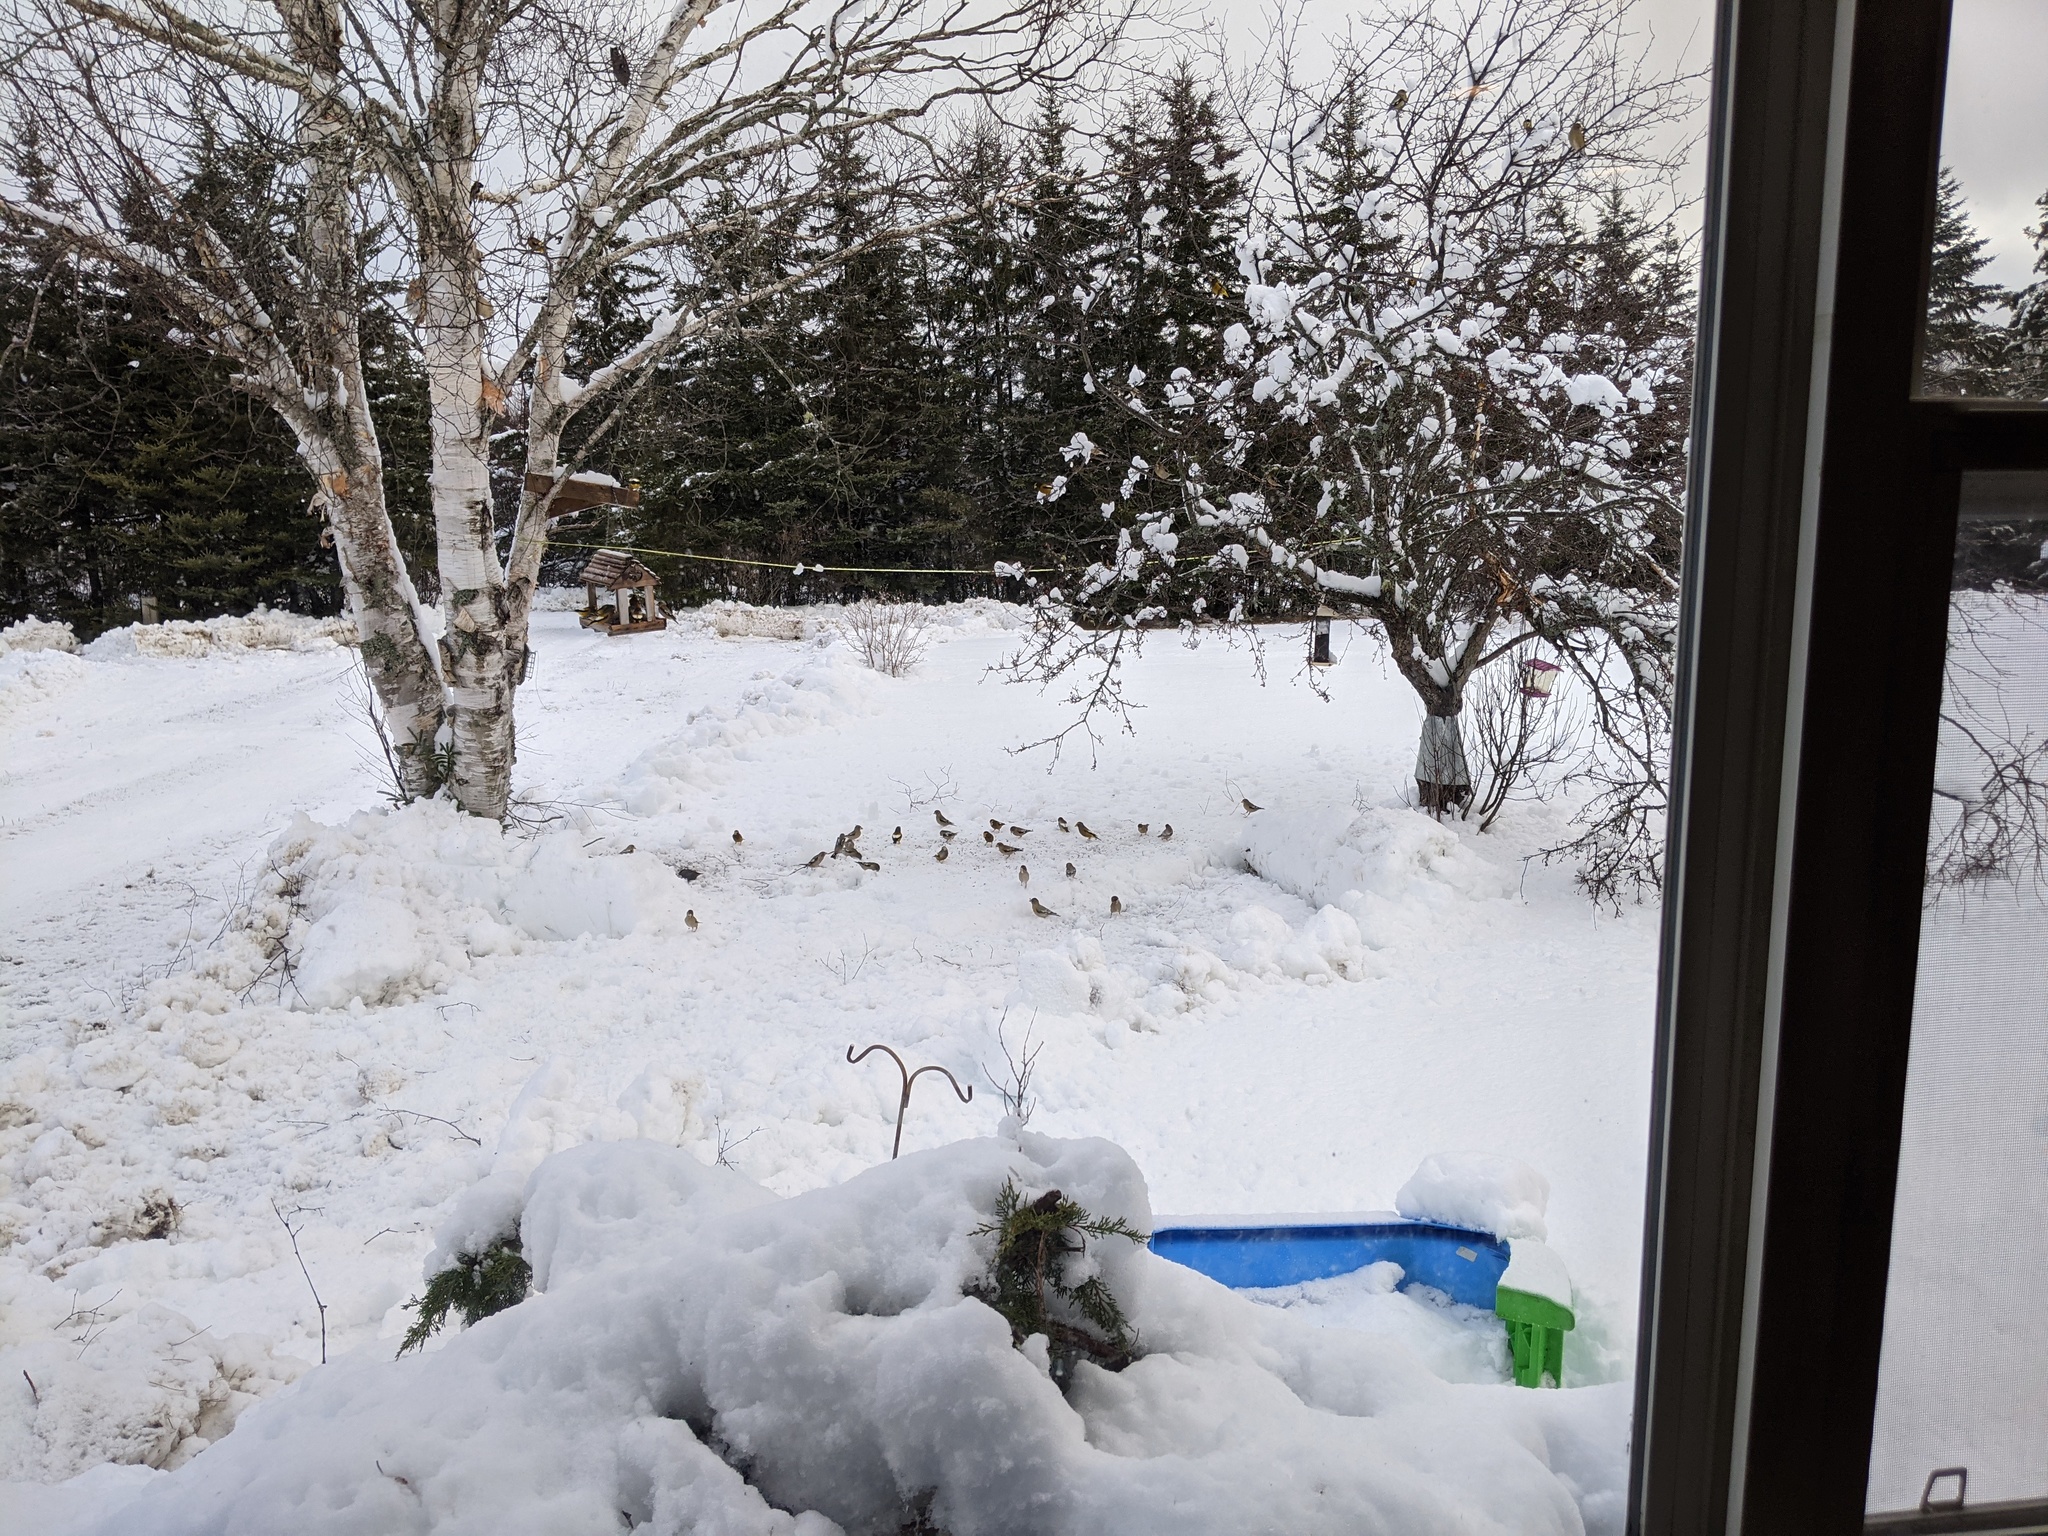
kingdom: Animalia
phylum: Chordata
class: Aves
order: Passeriformes
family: Fringillidae
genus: Hesperiphona
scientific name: Hesperiphona vespertina
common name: Evening grosbeak
